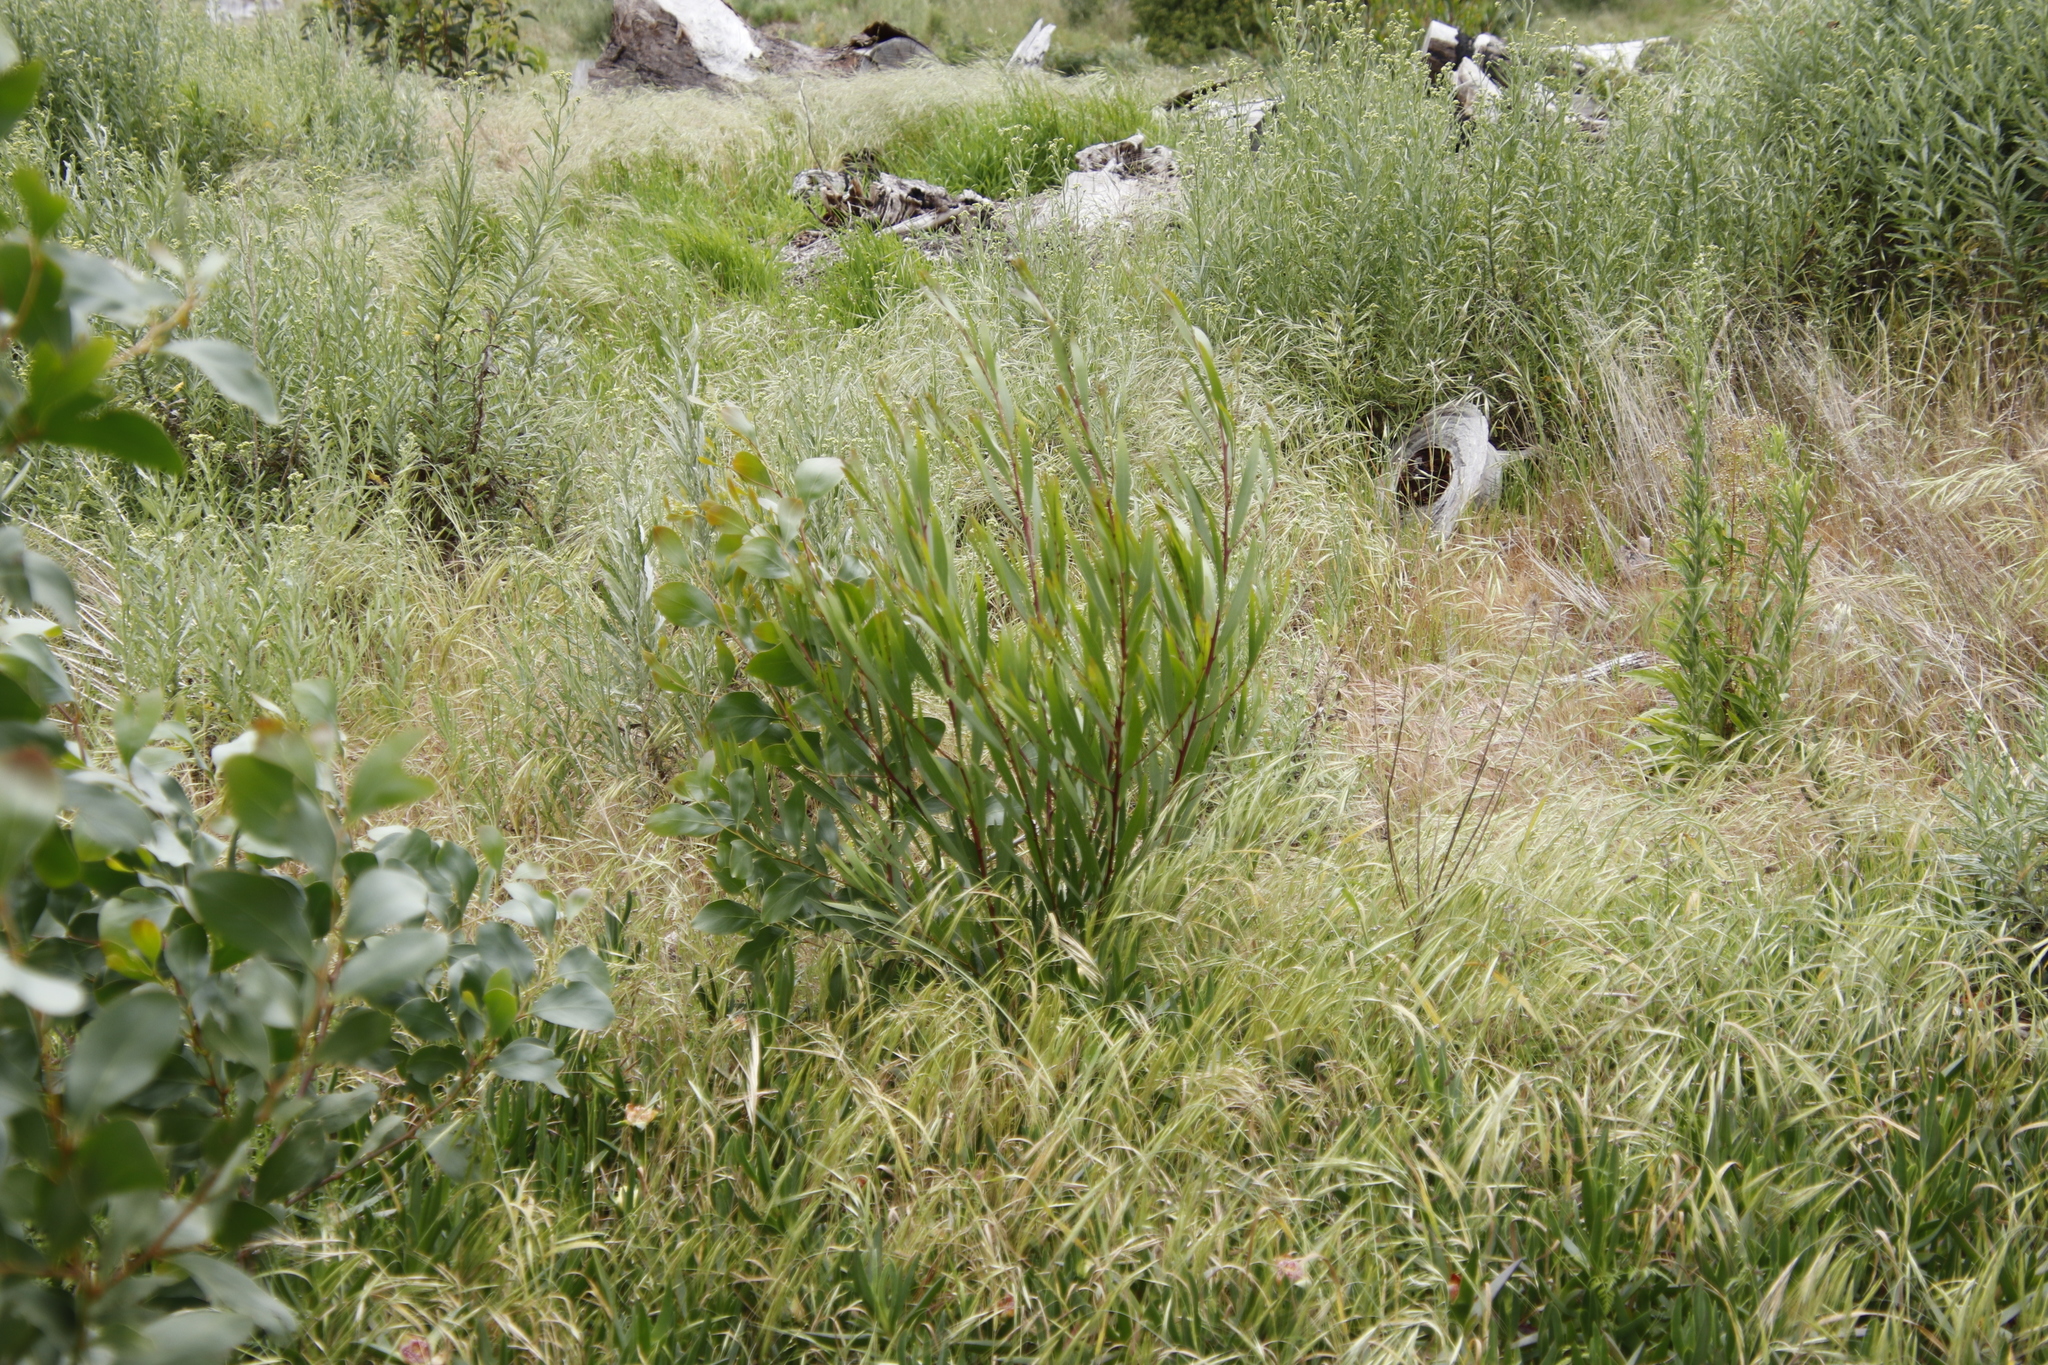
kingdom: Plantae
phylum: Tracheophyta
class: Magnoliopsida
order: Fabales
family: Fabaceae
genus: Acacia
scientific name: Acacia longifolia
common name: Sydney golden wattle
